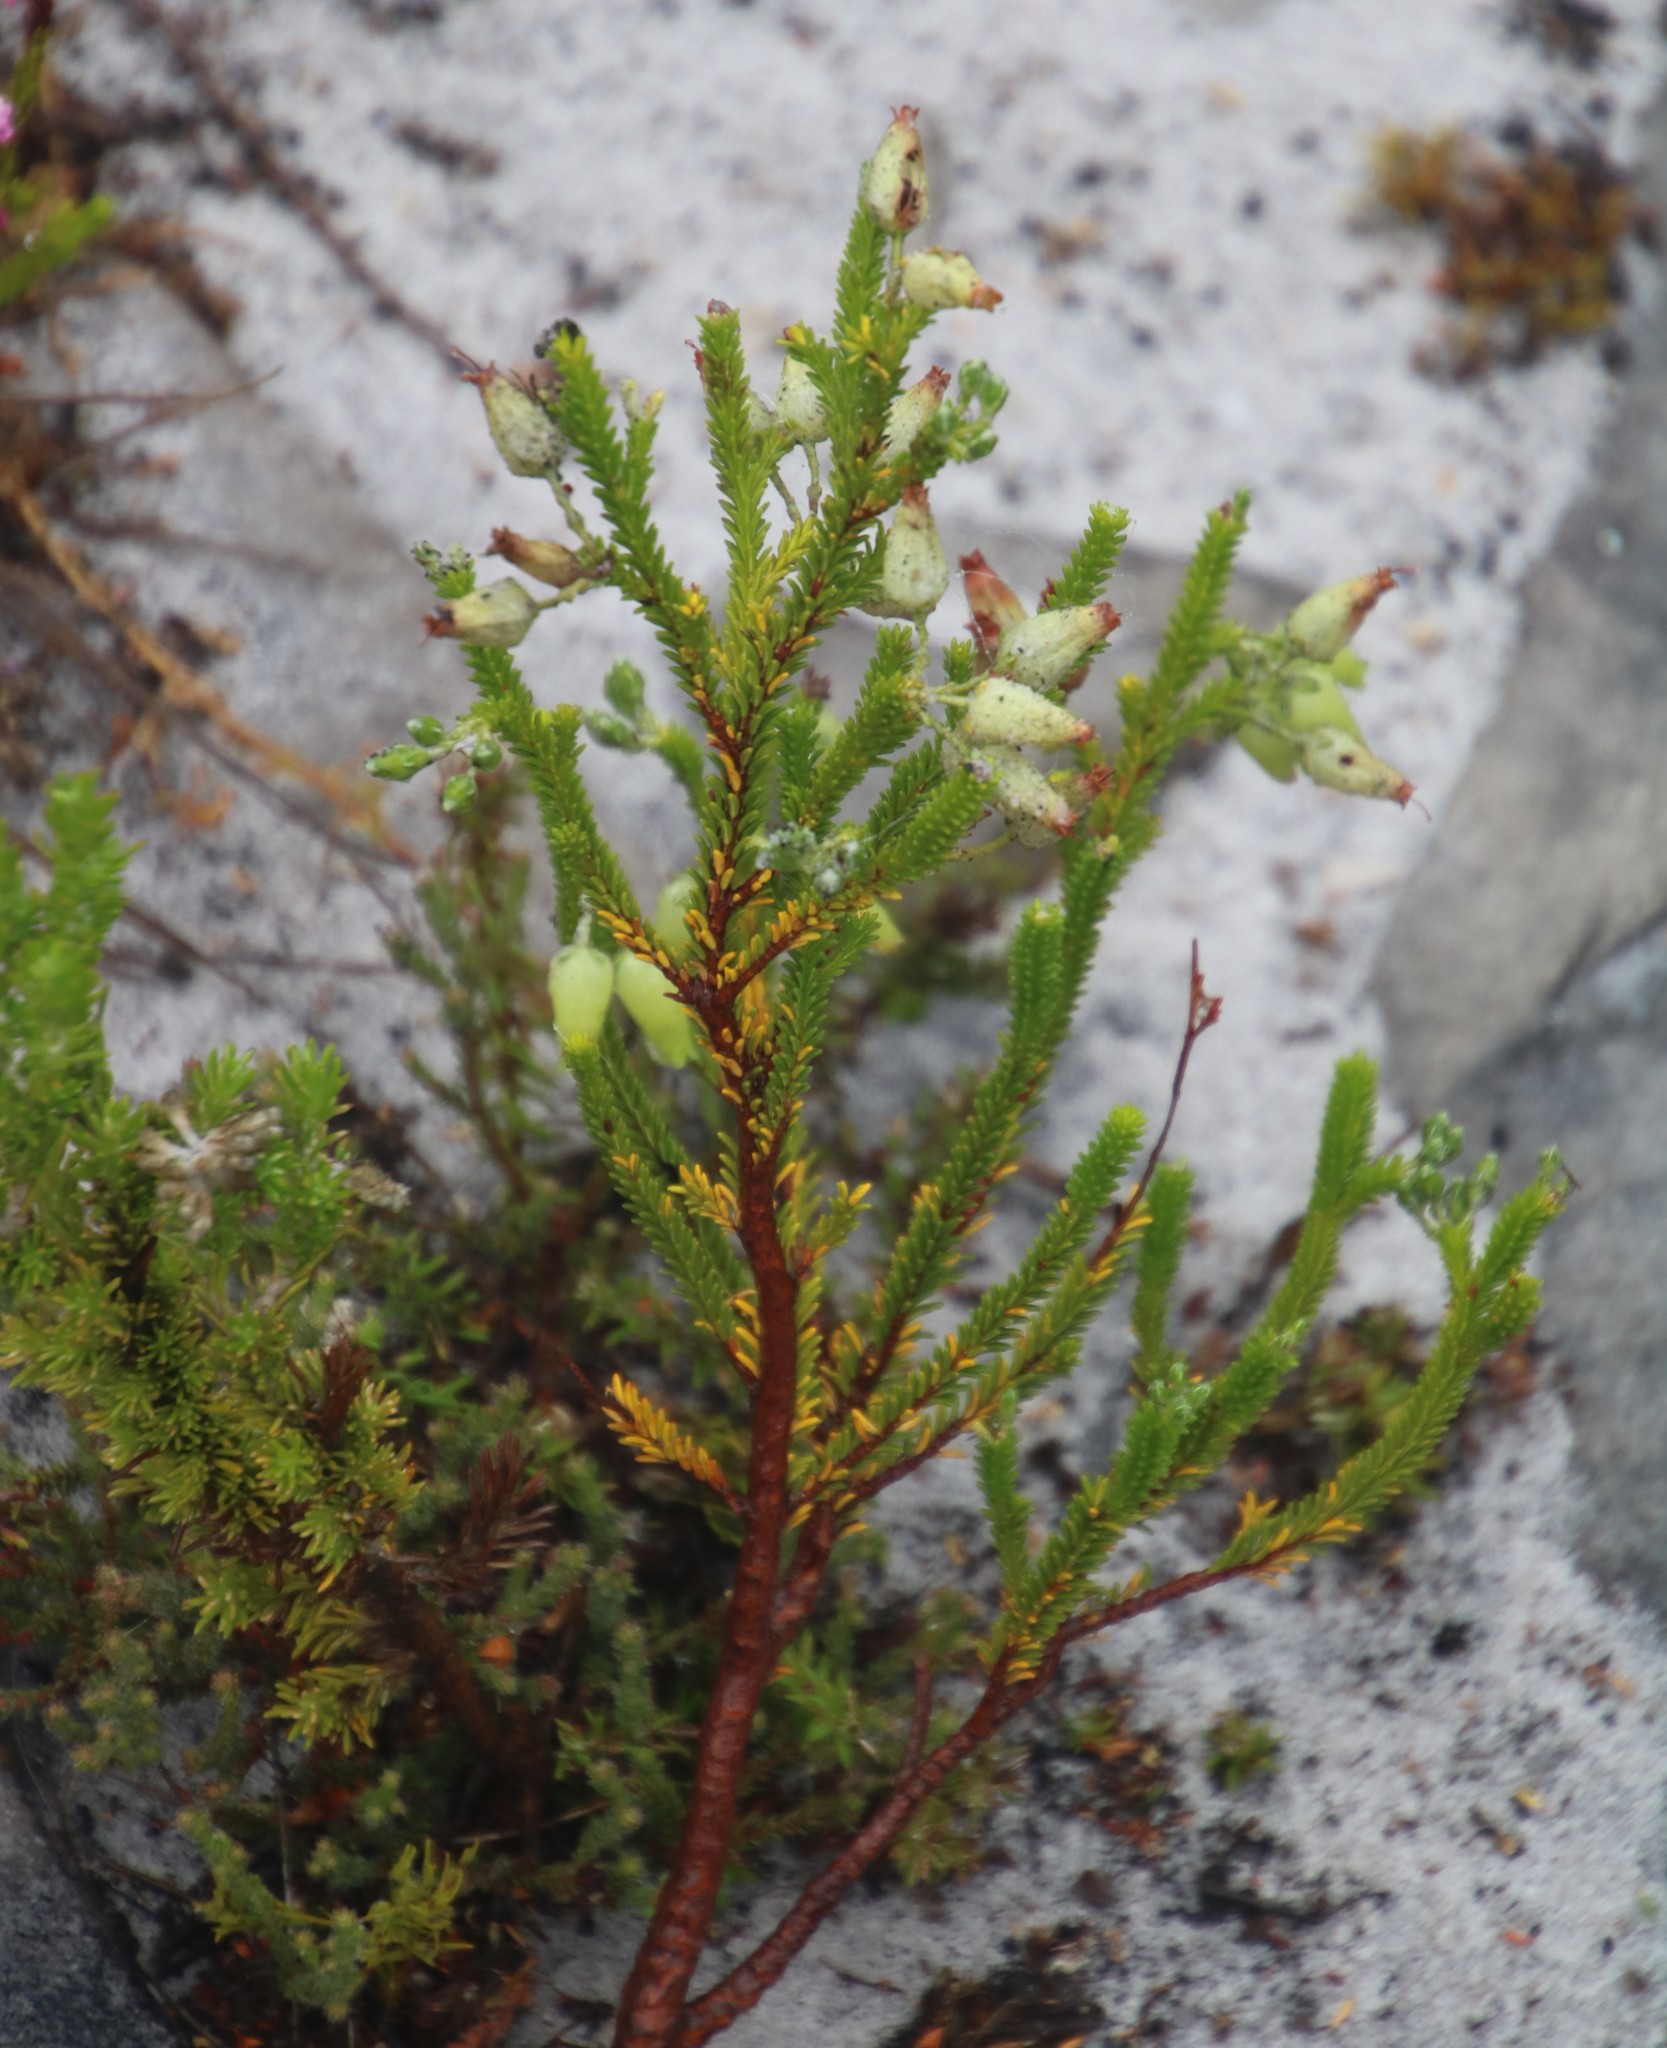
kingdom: Plantae
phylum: Tracheophyta
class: Magnoliopsida
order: Ericales
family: Ericaceae
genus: Erica
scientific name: Erica urna-viridis
